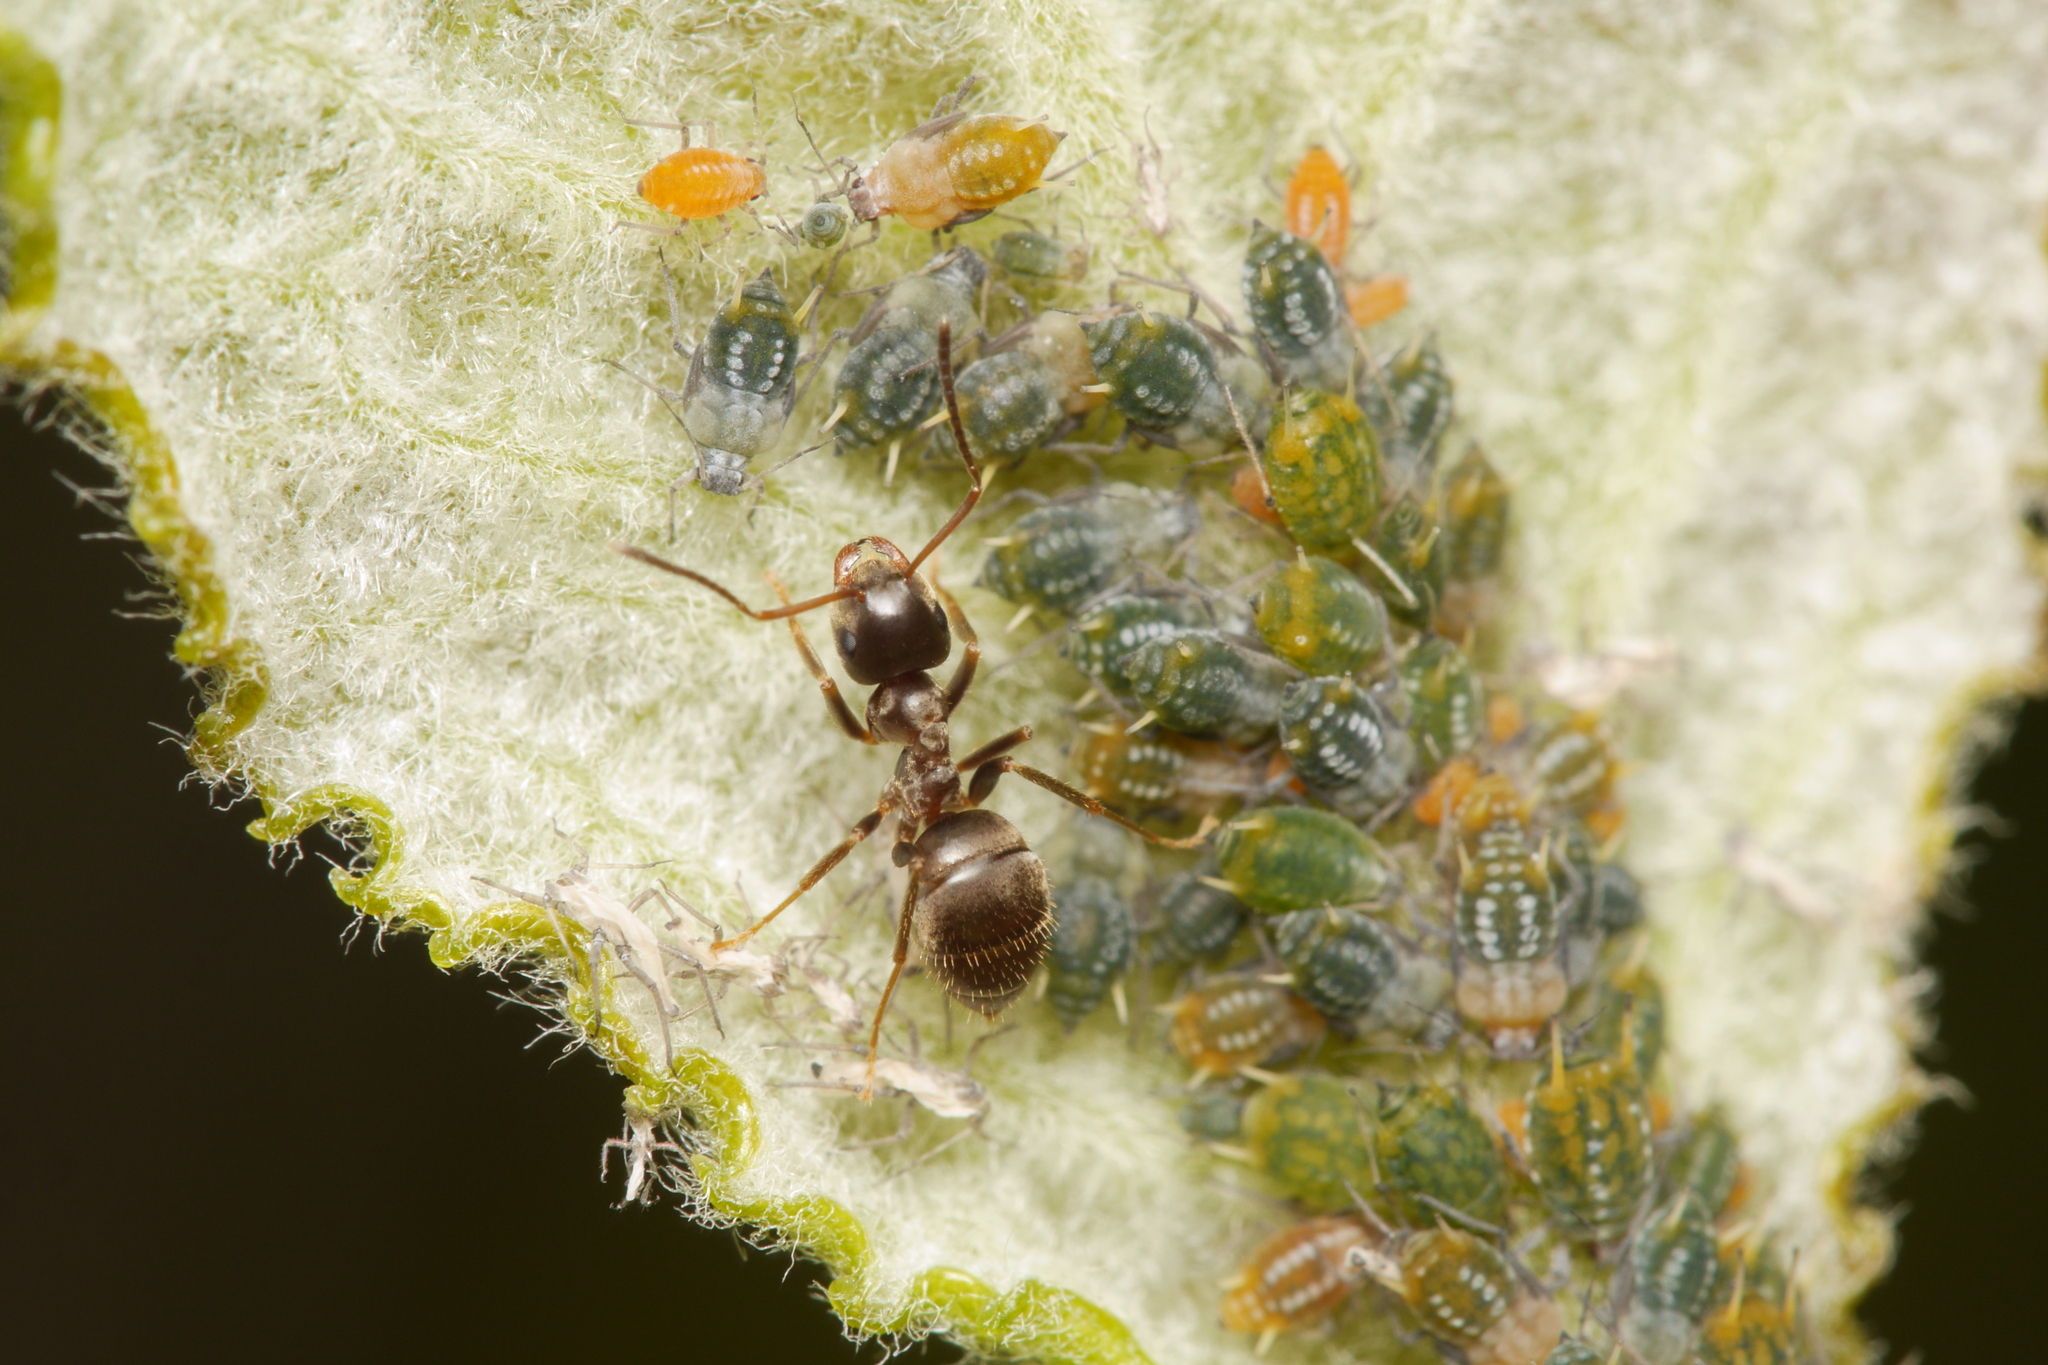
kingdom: Animalia
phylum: Arthropoda
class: Insecta
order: Hymenoptera
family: Formicidae
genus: Lasius
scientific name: Lasius niger
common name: Small black ant
